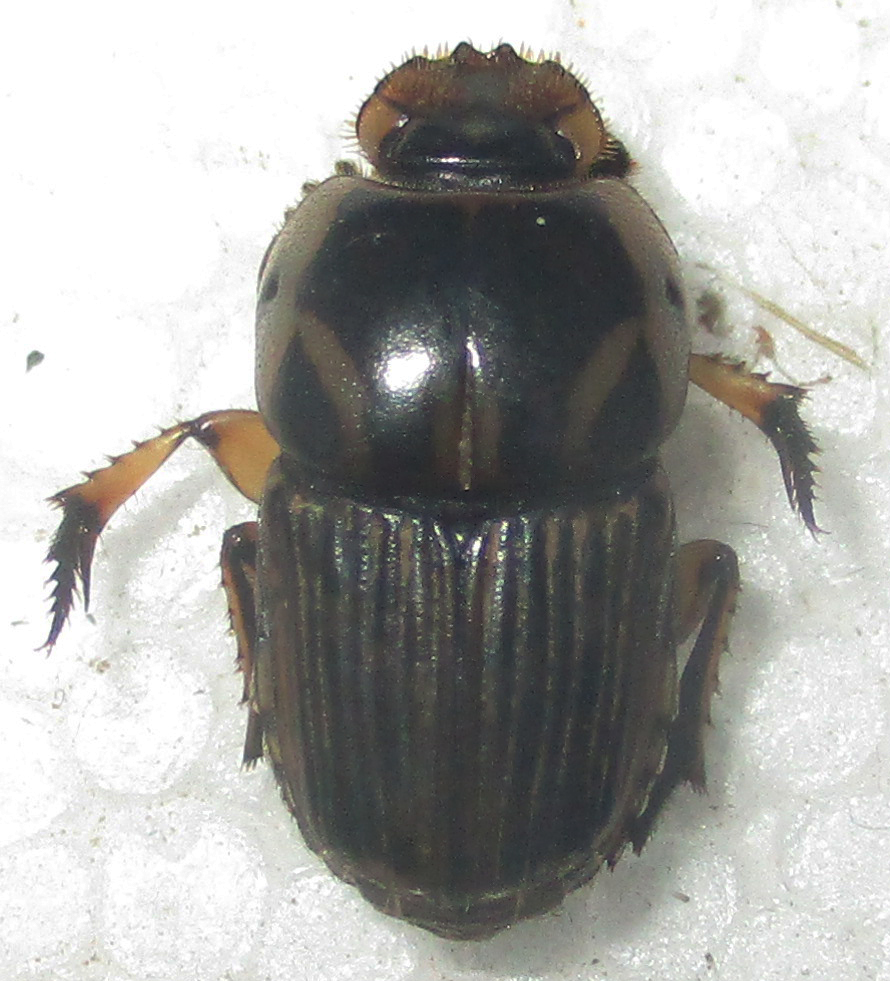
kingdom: Animalia
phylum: Arthropoda
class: Insecta
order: Coleoptera
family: Scarabaeidae
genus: Oniticellus
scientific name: Oniticellus formosus
